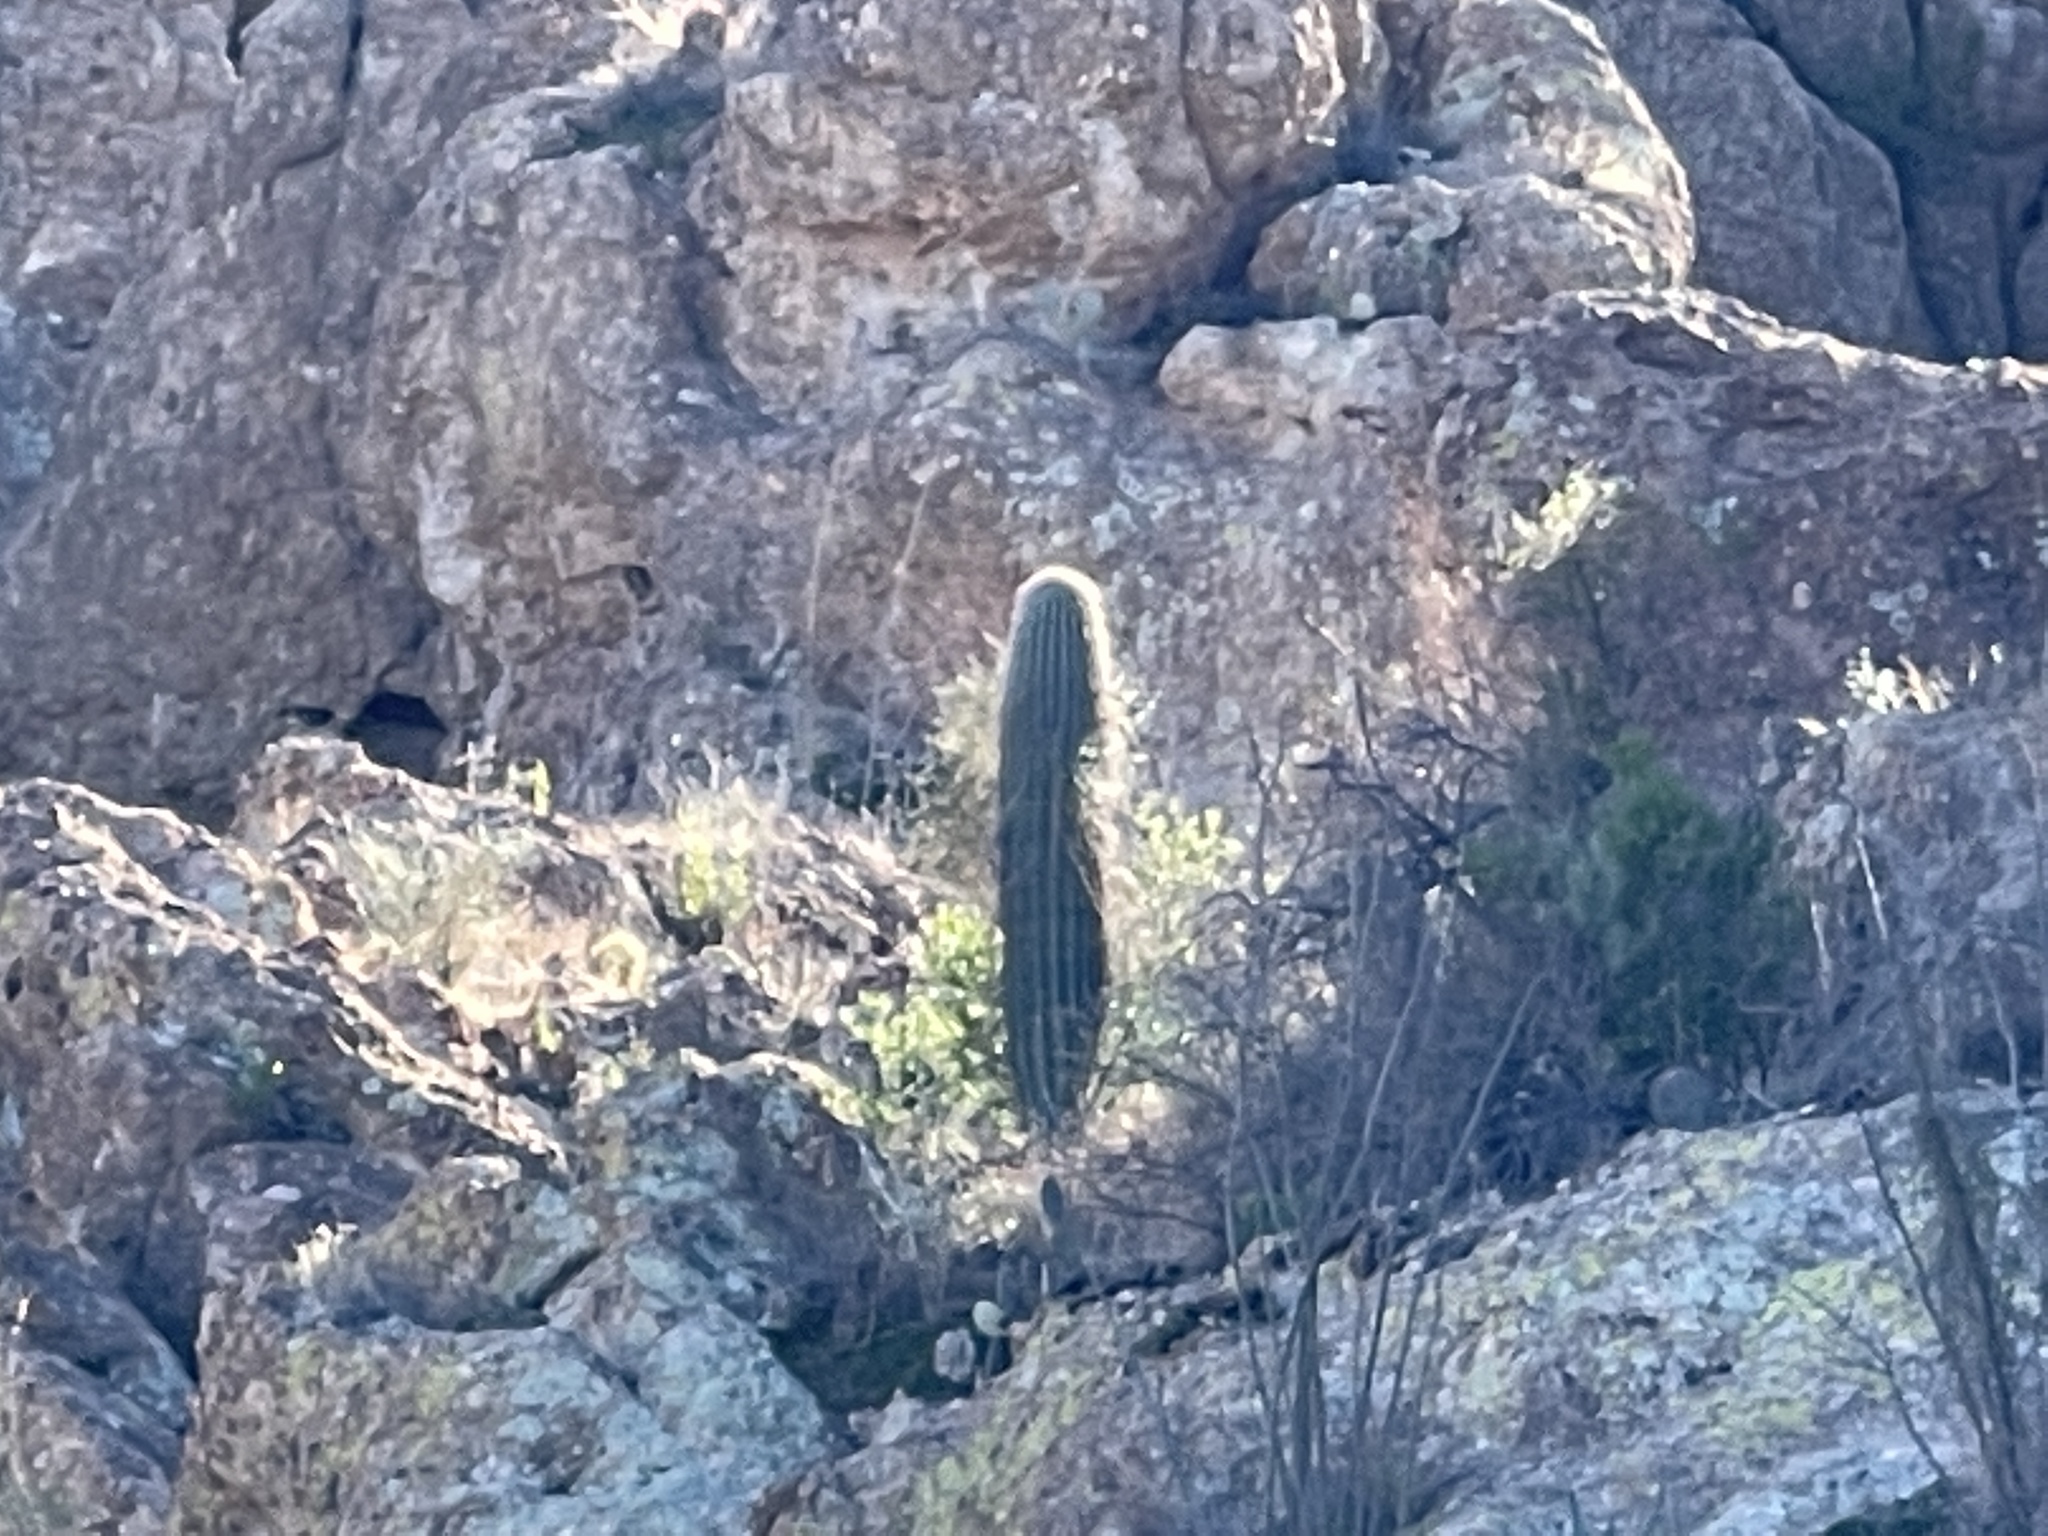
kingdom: Plantae
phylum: Tracheophyta
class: Magnoliopsida
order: Caryophyllales
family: Cactaceae
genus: Carnegiea
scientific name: Carnegiea gigantea
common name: Saguaro
